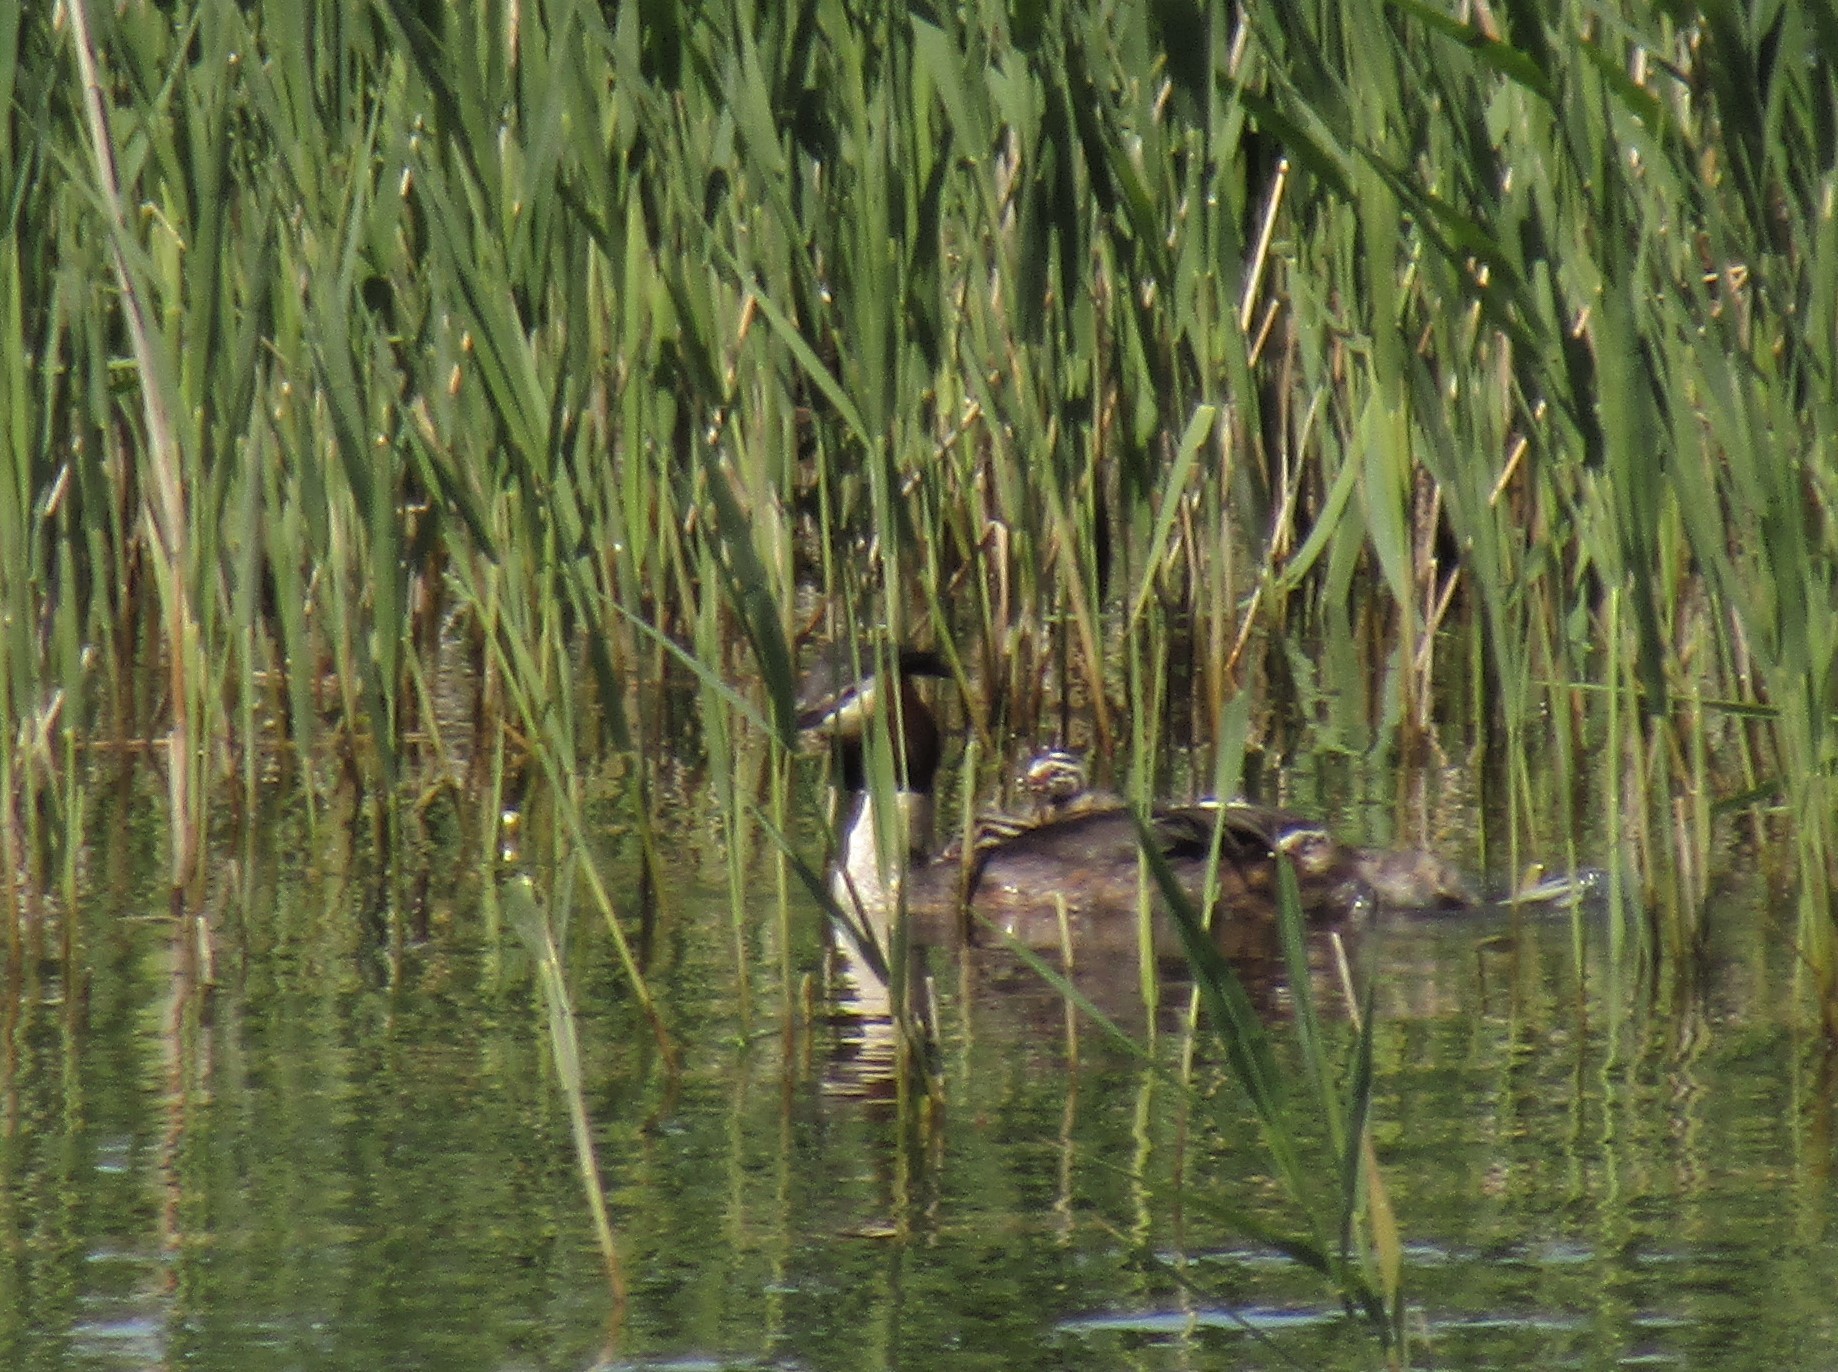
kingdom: Animalia
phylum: Chordata
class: Aves
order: Podicipediformes
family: Podicipedidae
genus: Podiceps
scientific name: Podiceps cristatus
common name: Great crested grebe
